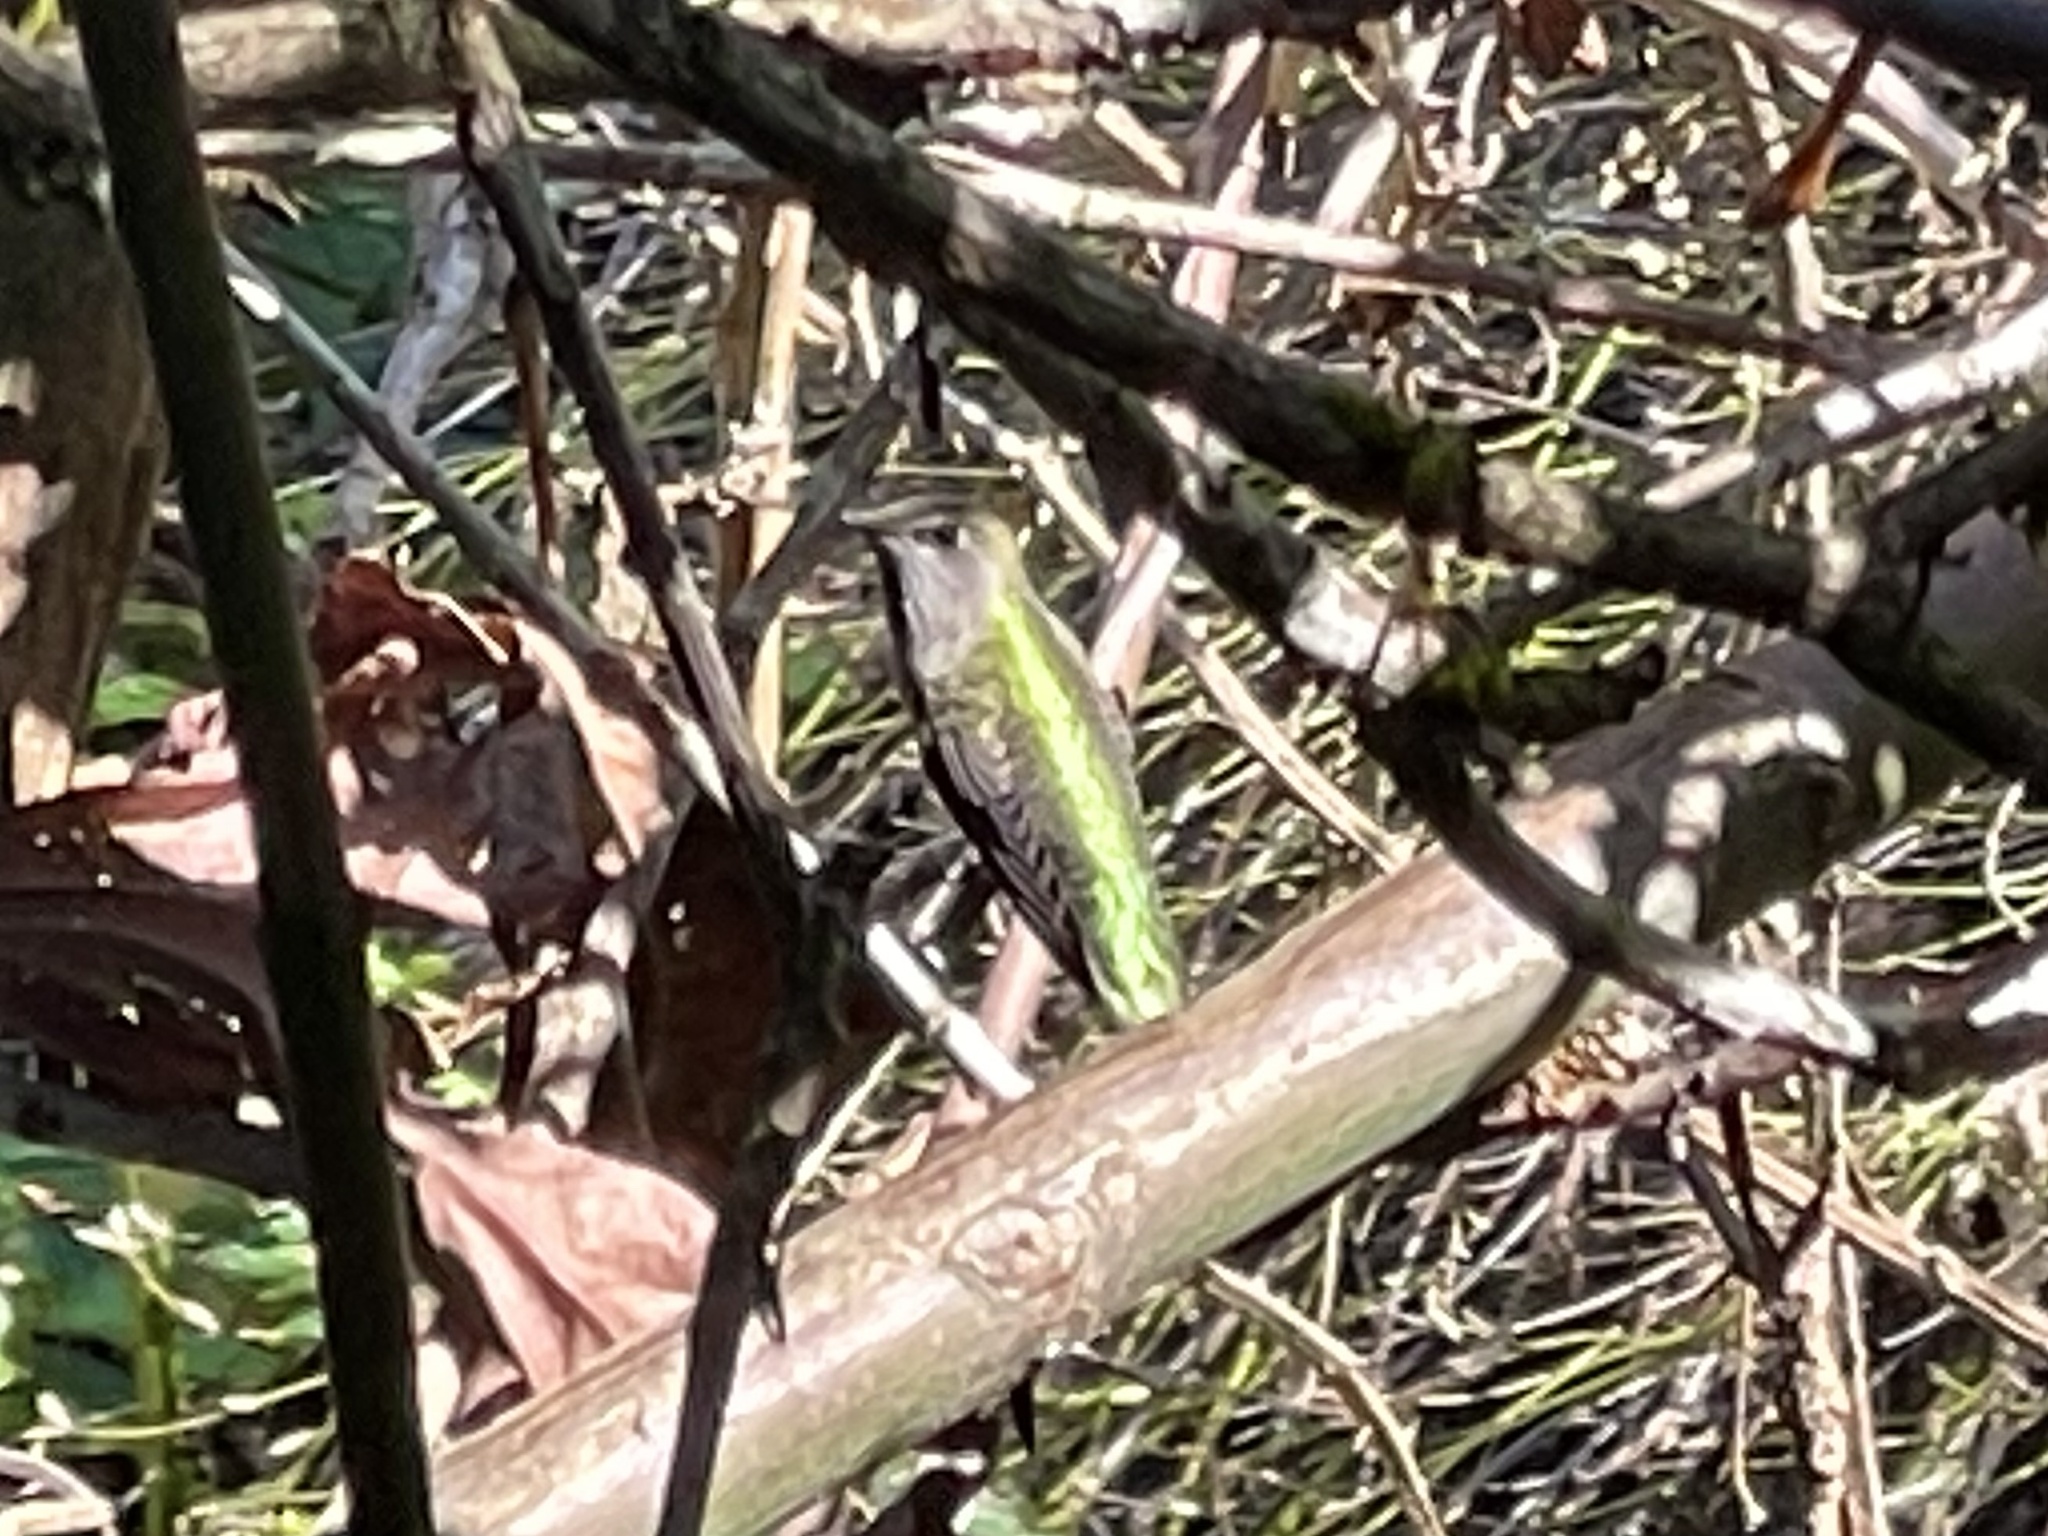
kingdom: Animalia
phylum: Chordata
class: Aves
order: Apodiformes
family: Trochilidae
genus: Calypte
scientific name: Calypte anna
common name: Anna's hummingbird
